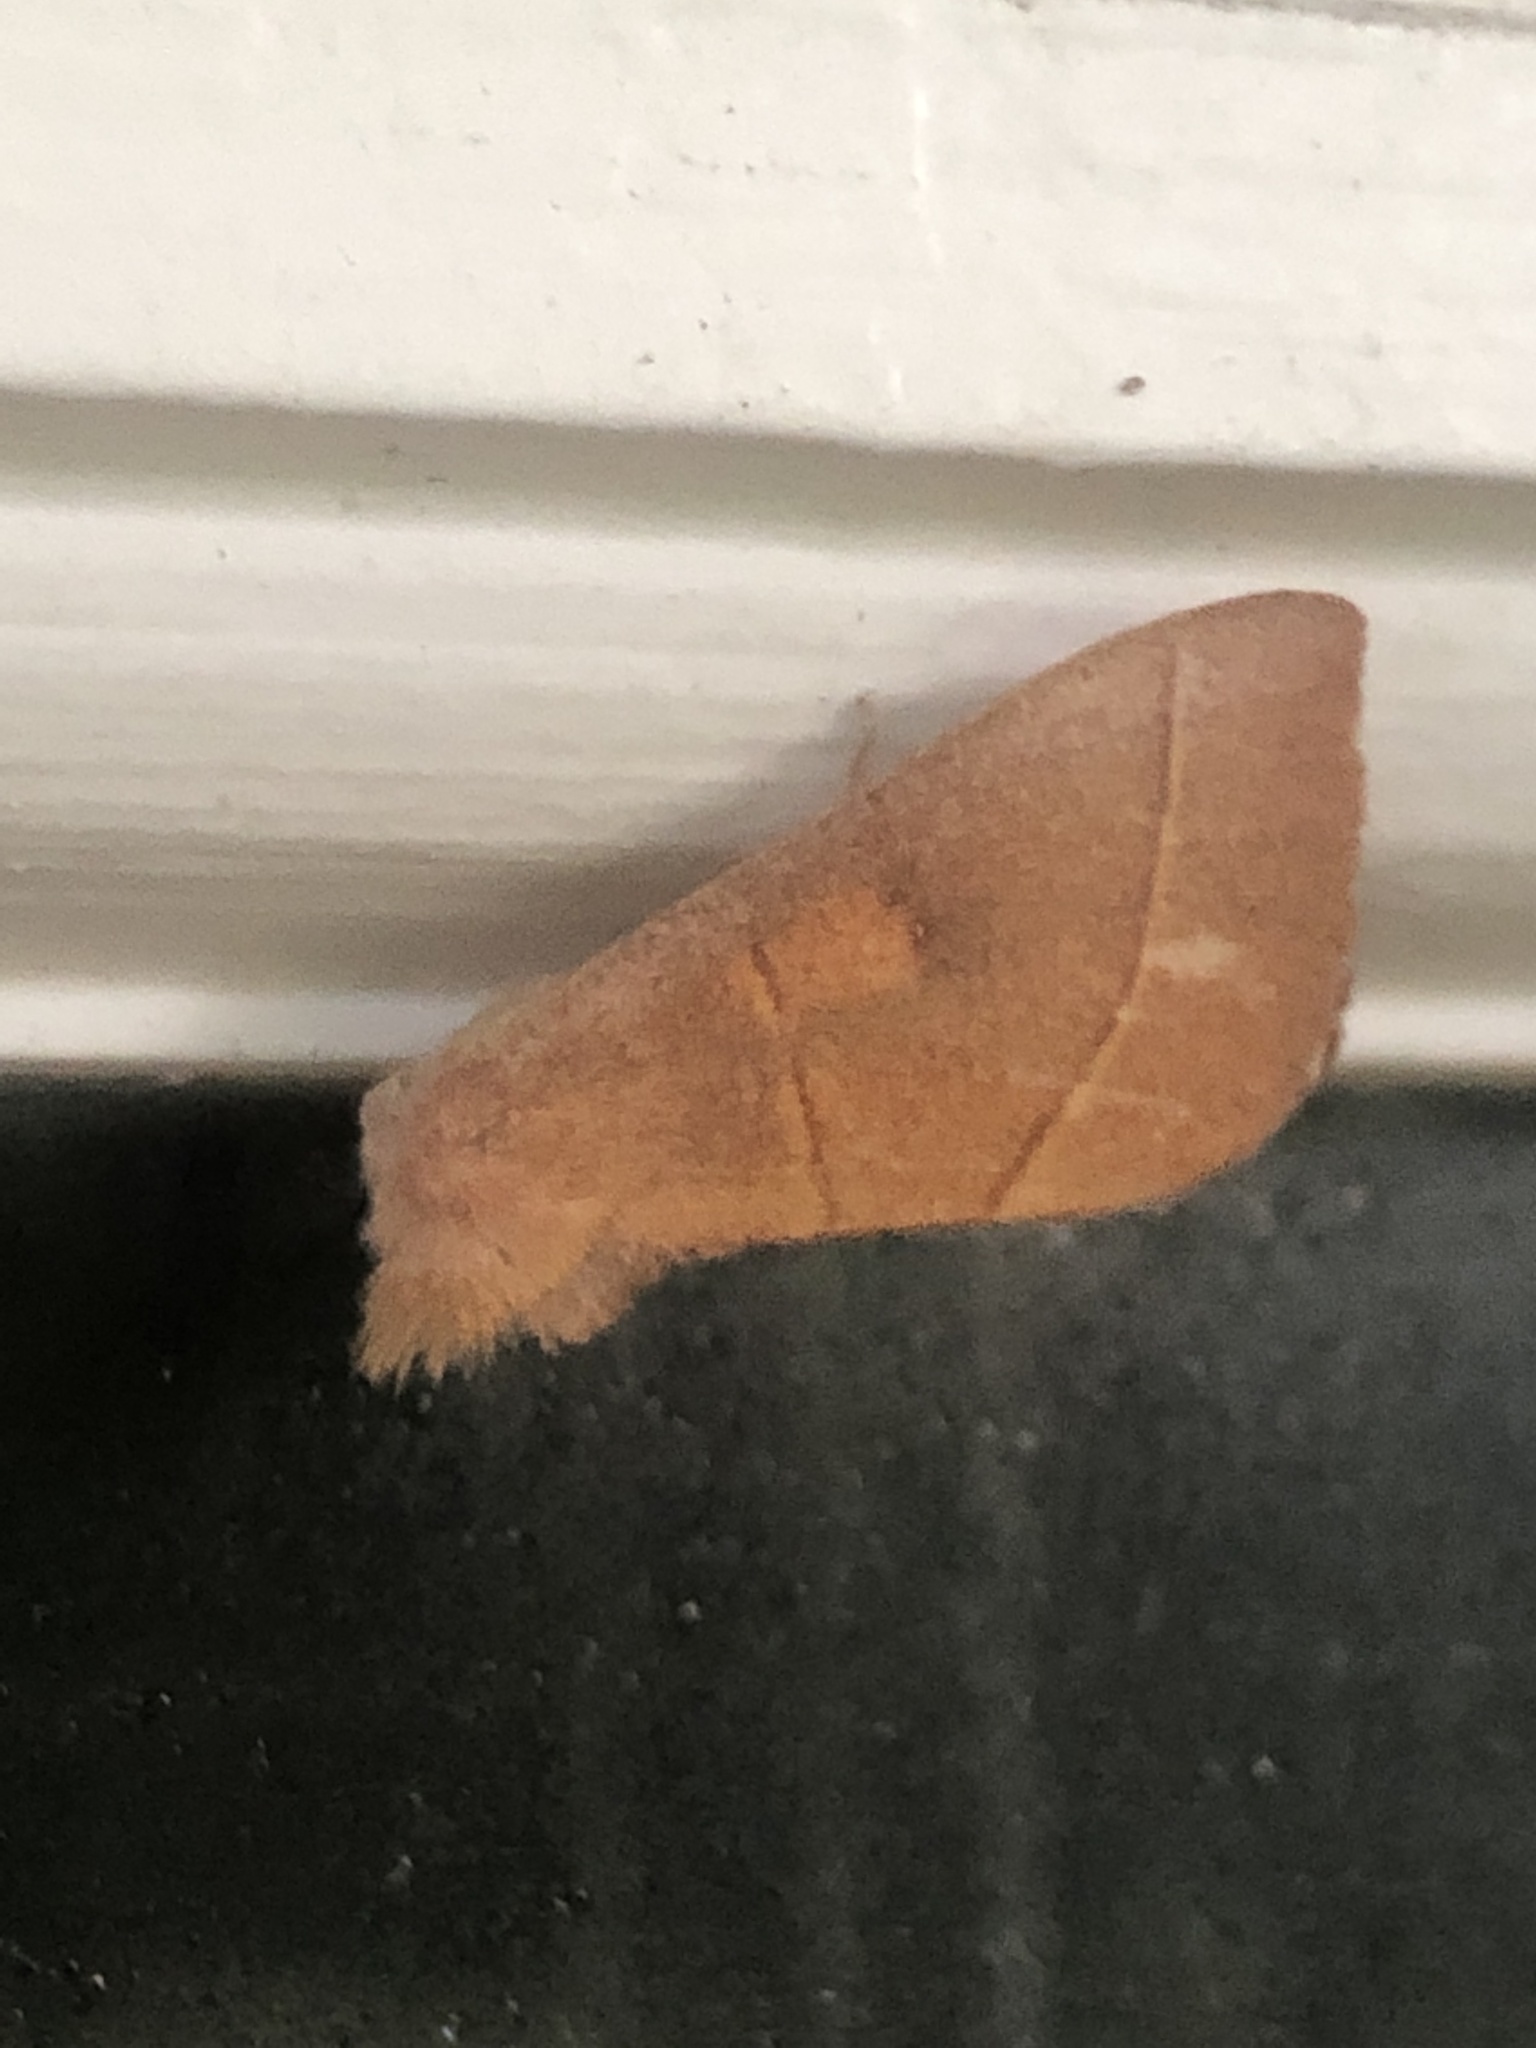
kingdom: Animalia
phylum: Arthropoda
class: Insecta
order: Lepidoptera
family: Notodontidae
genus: Nadata
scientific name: Nadata gibbosa
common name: White-dotted prominent
